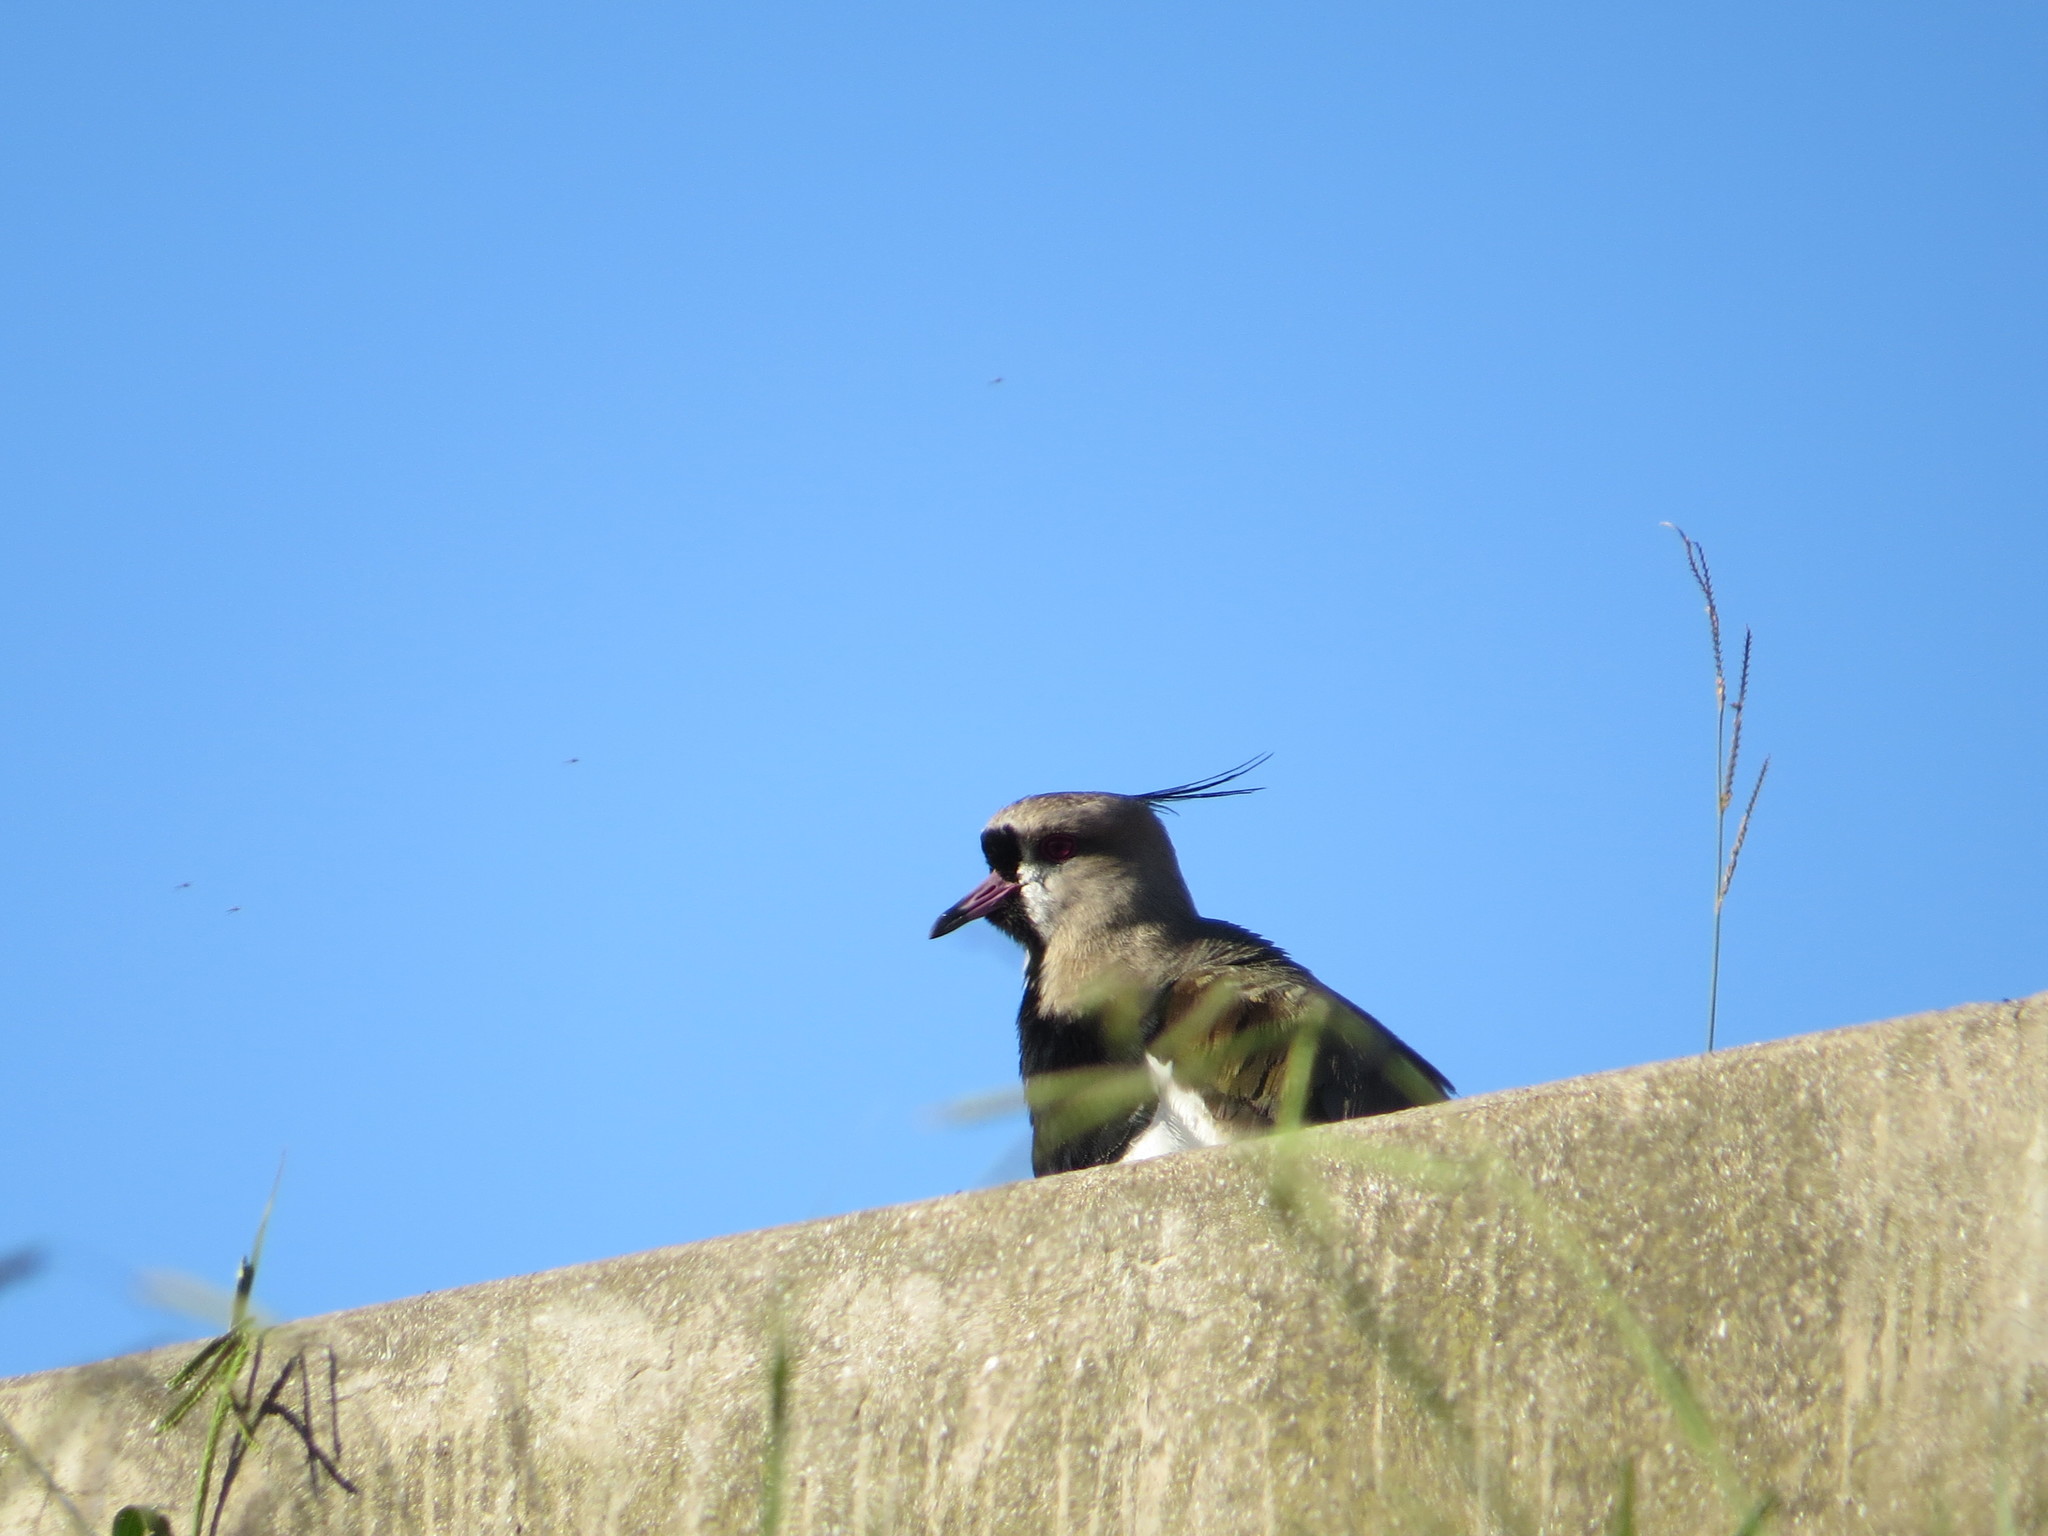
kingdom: Animalia
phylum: Chordata
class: Aves
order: Charadriiformes
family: Charadriidae
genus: Vanellus
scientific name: Vanellus chilensis
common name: Southern lapwing
